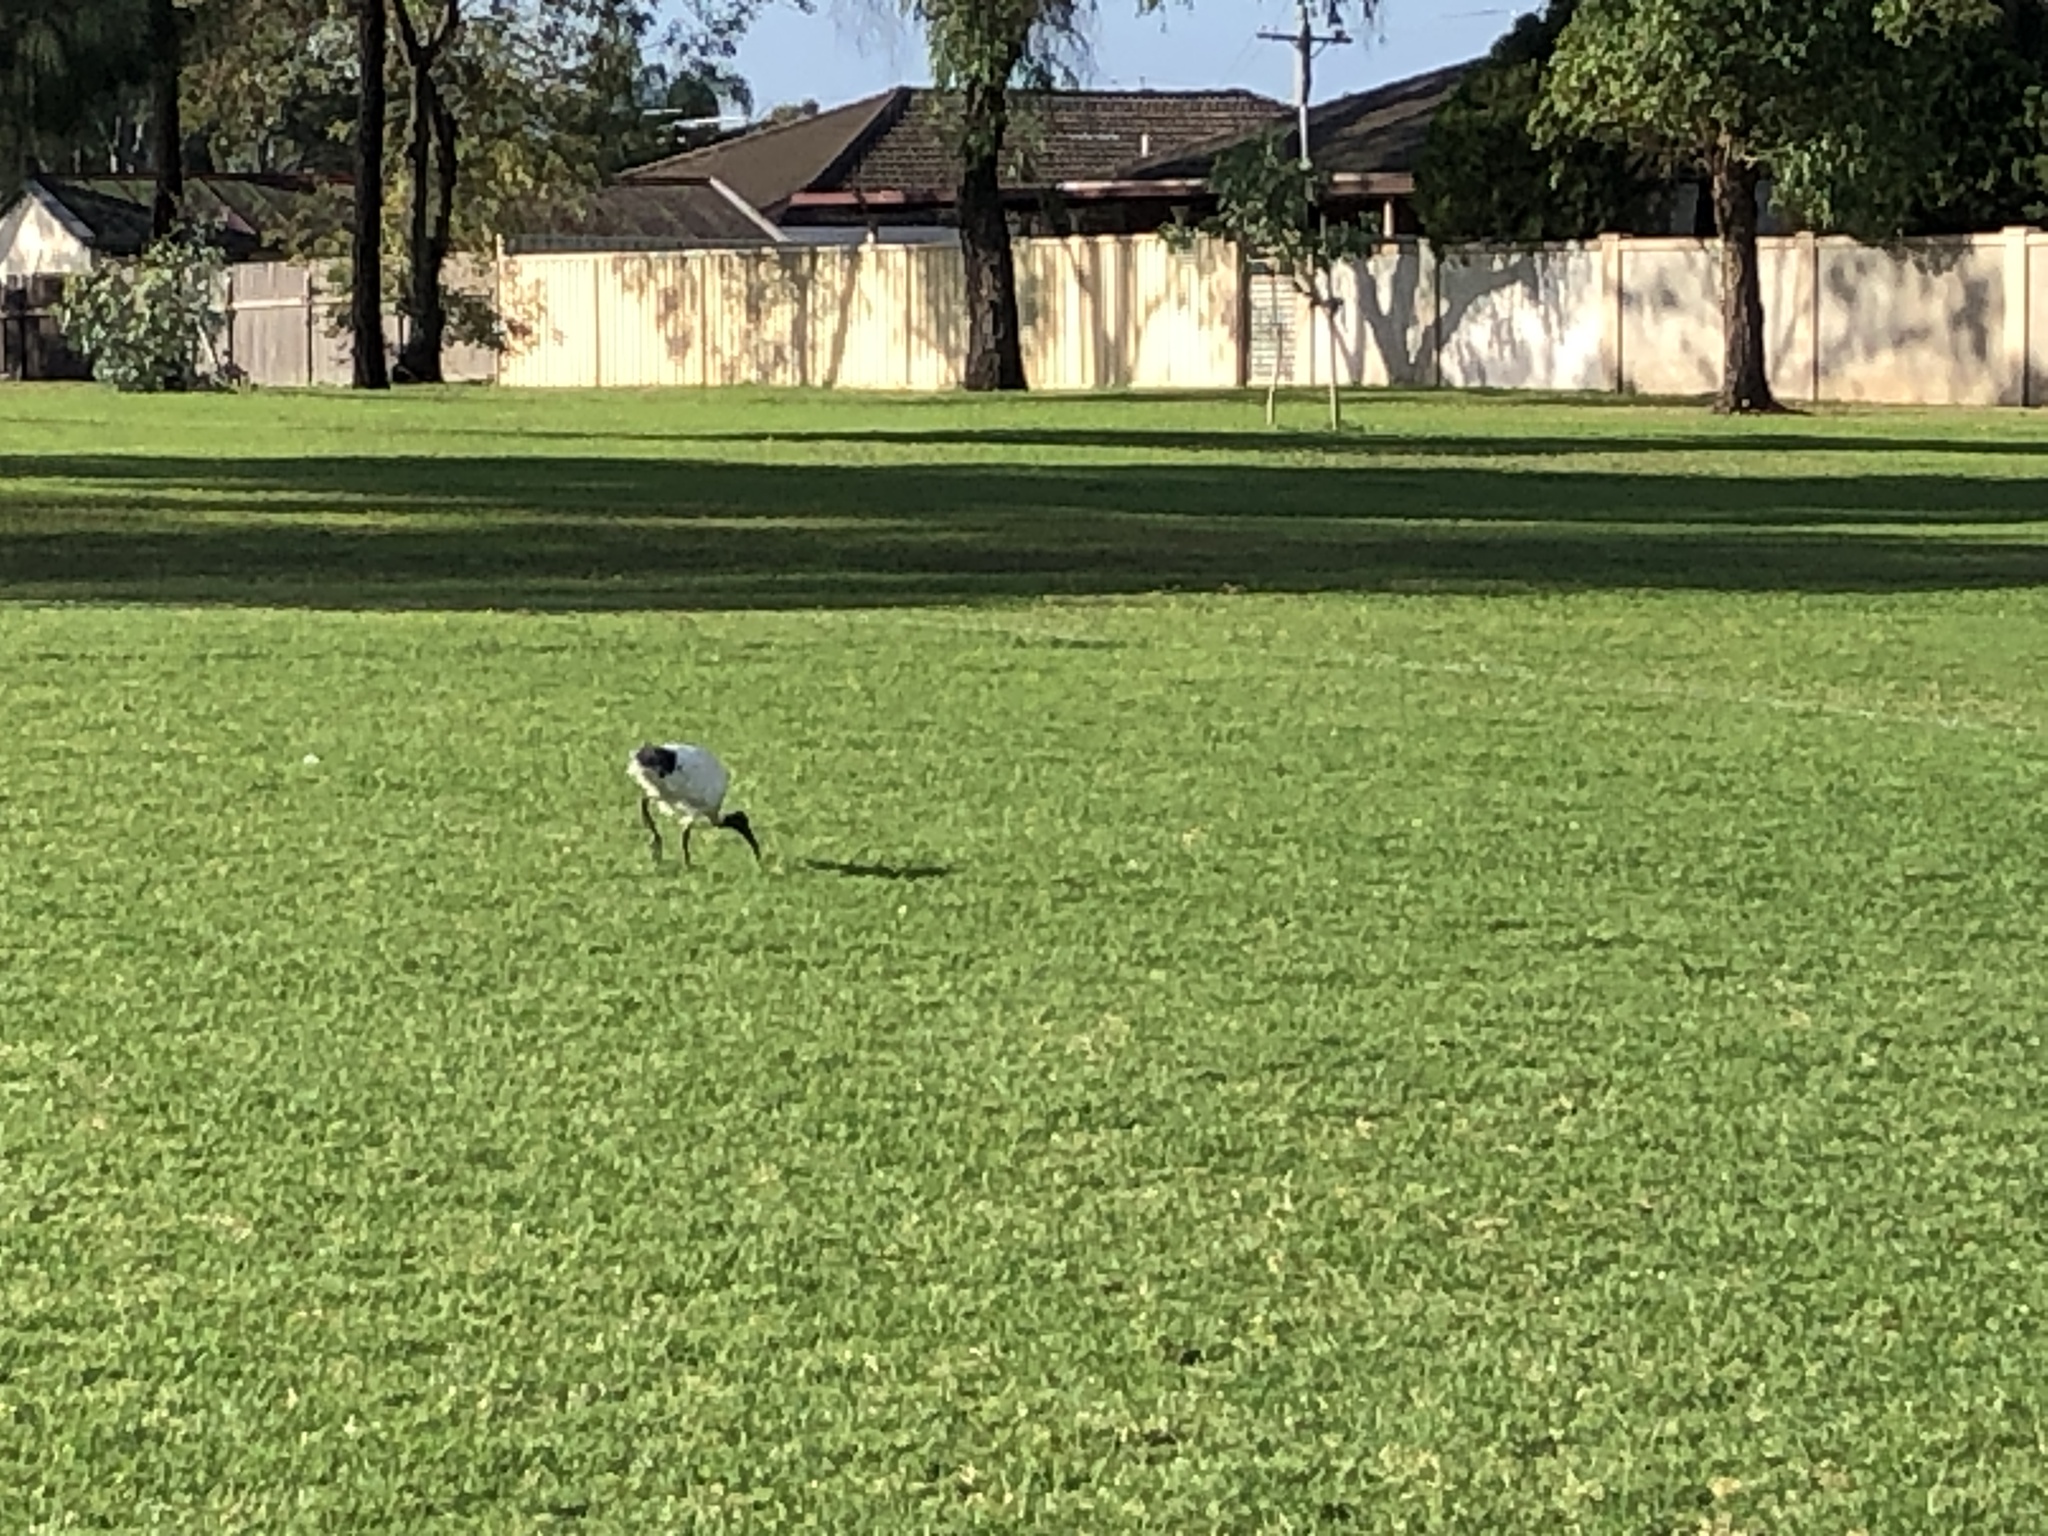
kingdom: Animalia
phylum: Chordata
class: Aves
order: Pelecaniformes
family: Threskiornithidae
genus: Threskiornis
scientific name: Threskiornis molucca
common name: Australian white ibis
